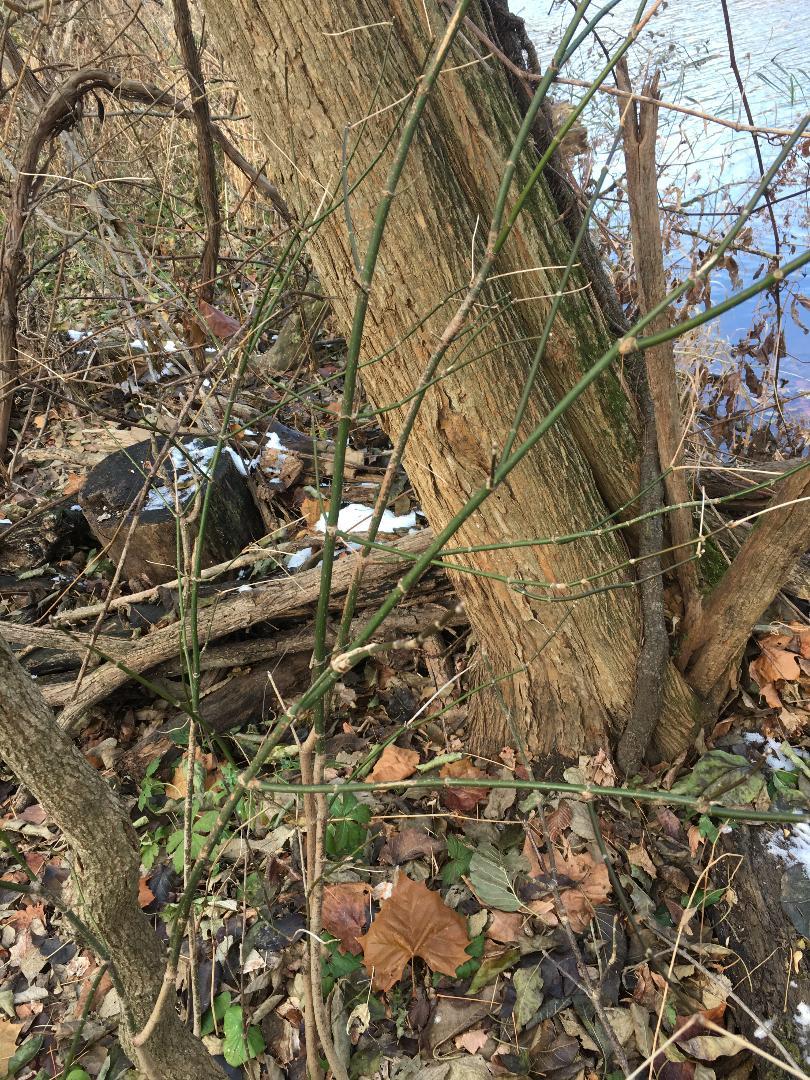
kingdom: Plantae
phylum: Tracheophyta
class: Magnoliopsida
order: Sapindales
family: Sapindaceae
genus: Acer
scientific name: Acer negundo
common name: Ashleaf maple
